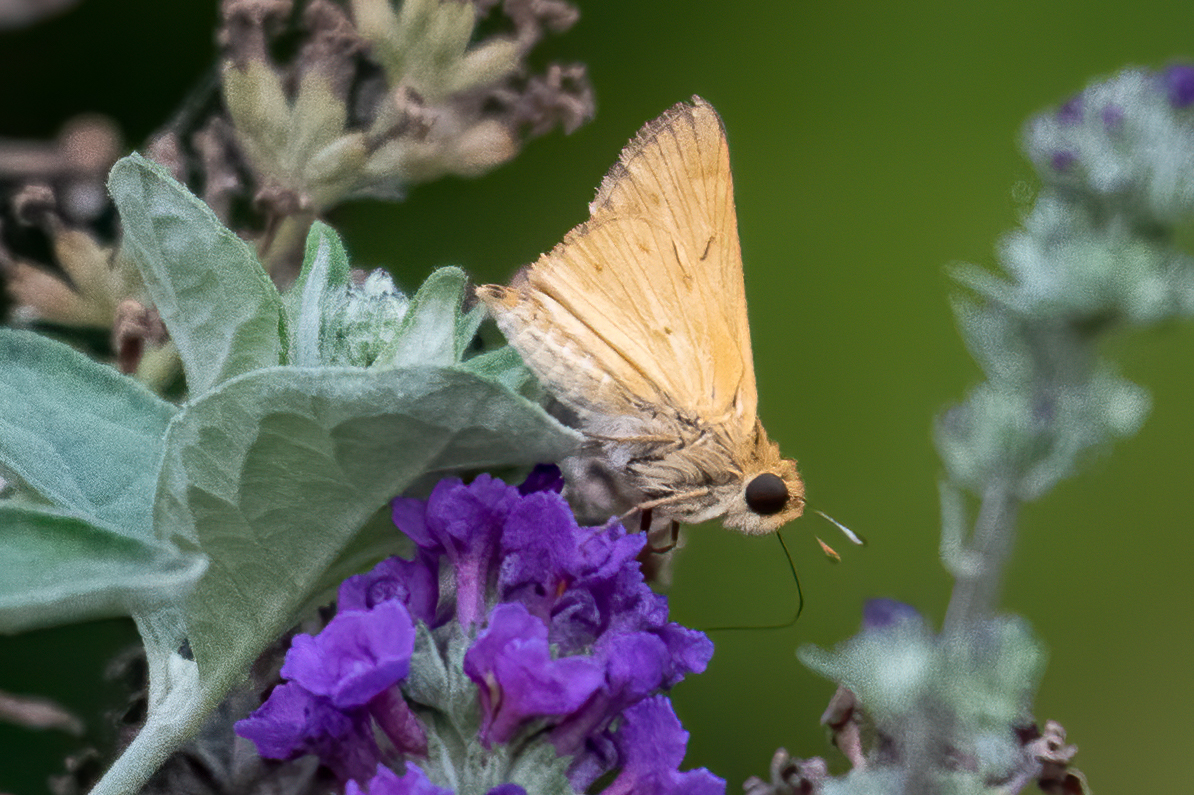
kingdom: Animalia
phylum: Arthropoda
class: Insecta
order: Lepidoptera
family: Hesperiidae
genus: Hylephila
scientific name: Hylephila phyleus
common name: Fiery skipper
